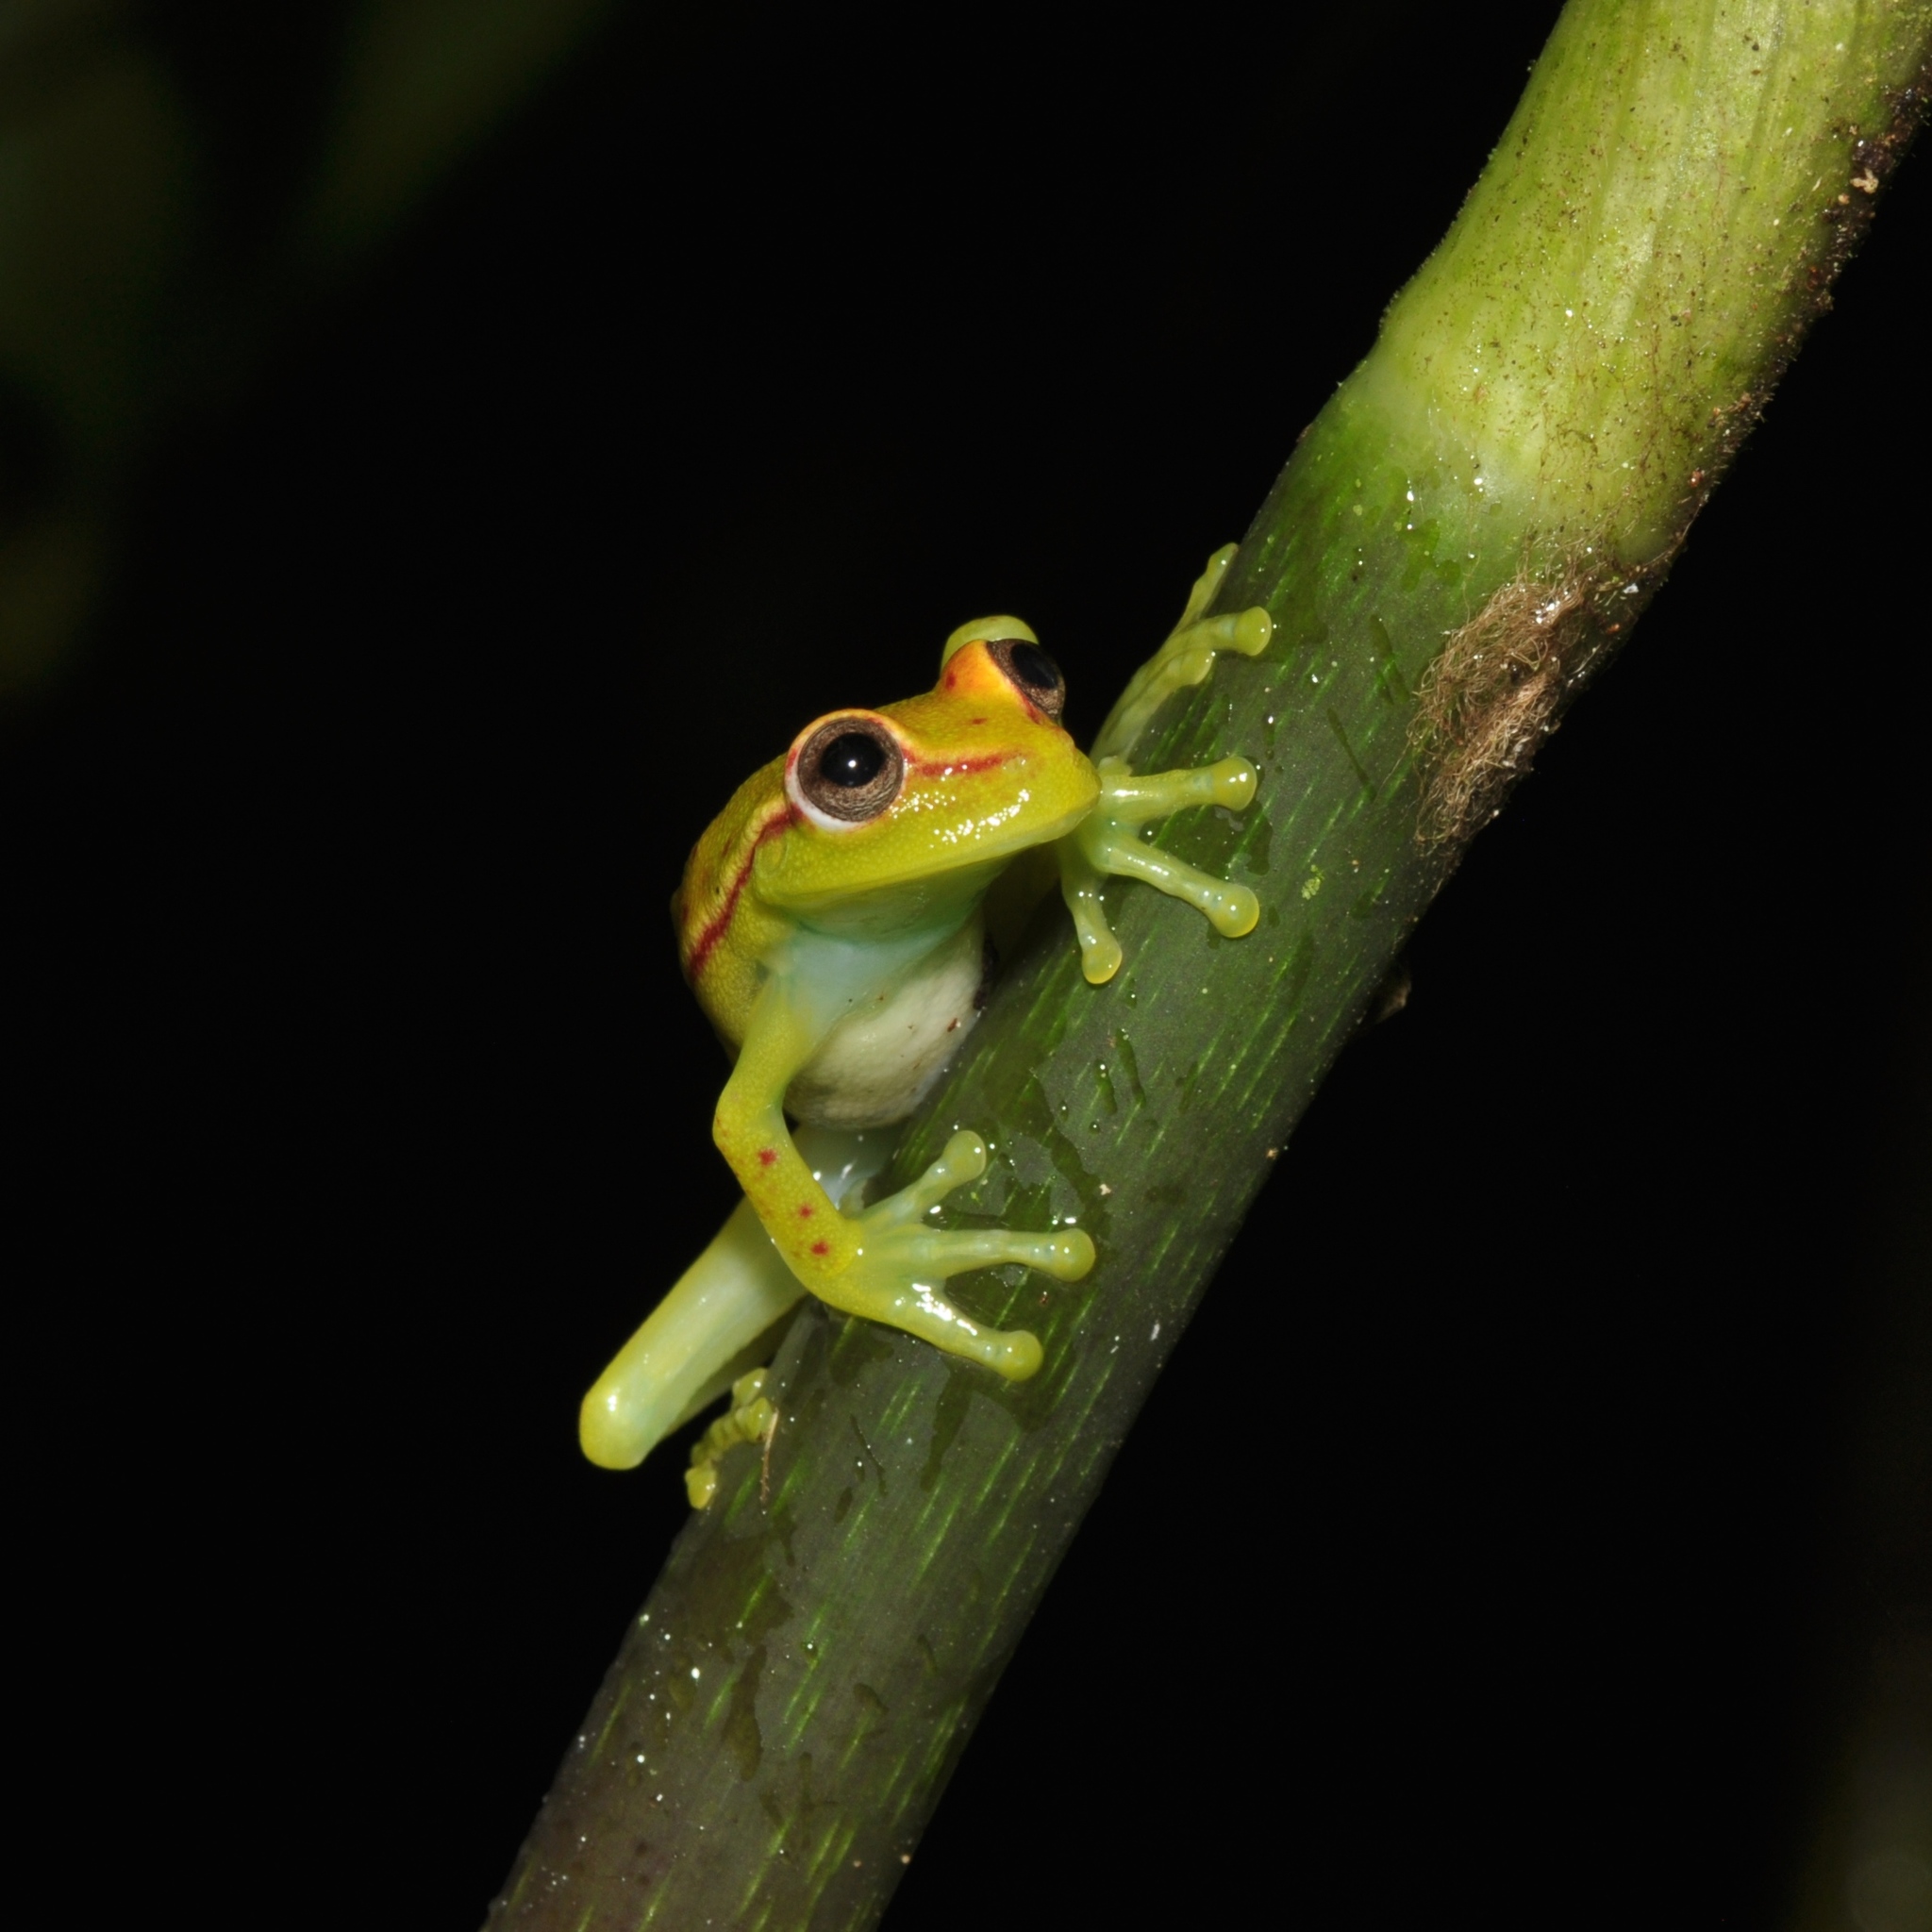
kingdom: Animalia
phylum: Chordata
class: Amphibia
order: Anura
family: Hylidae
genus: Boana
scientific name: Boana punctata
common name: Polka-dot treefrog
